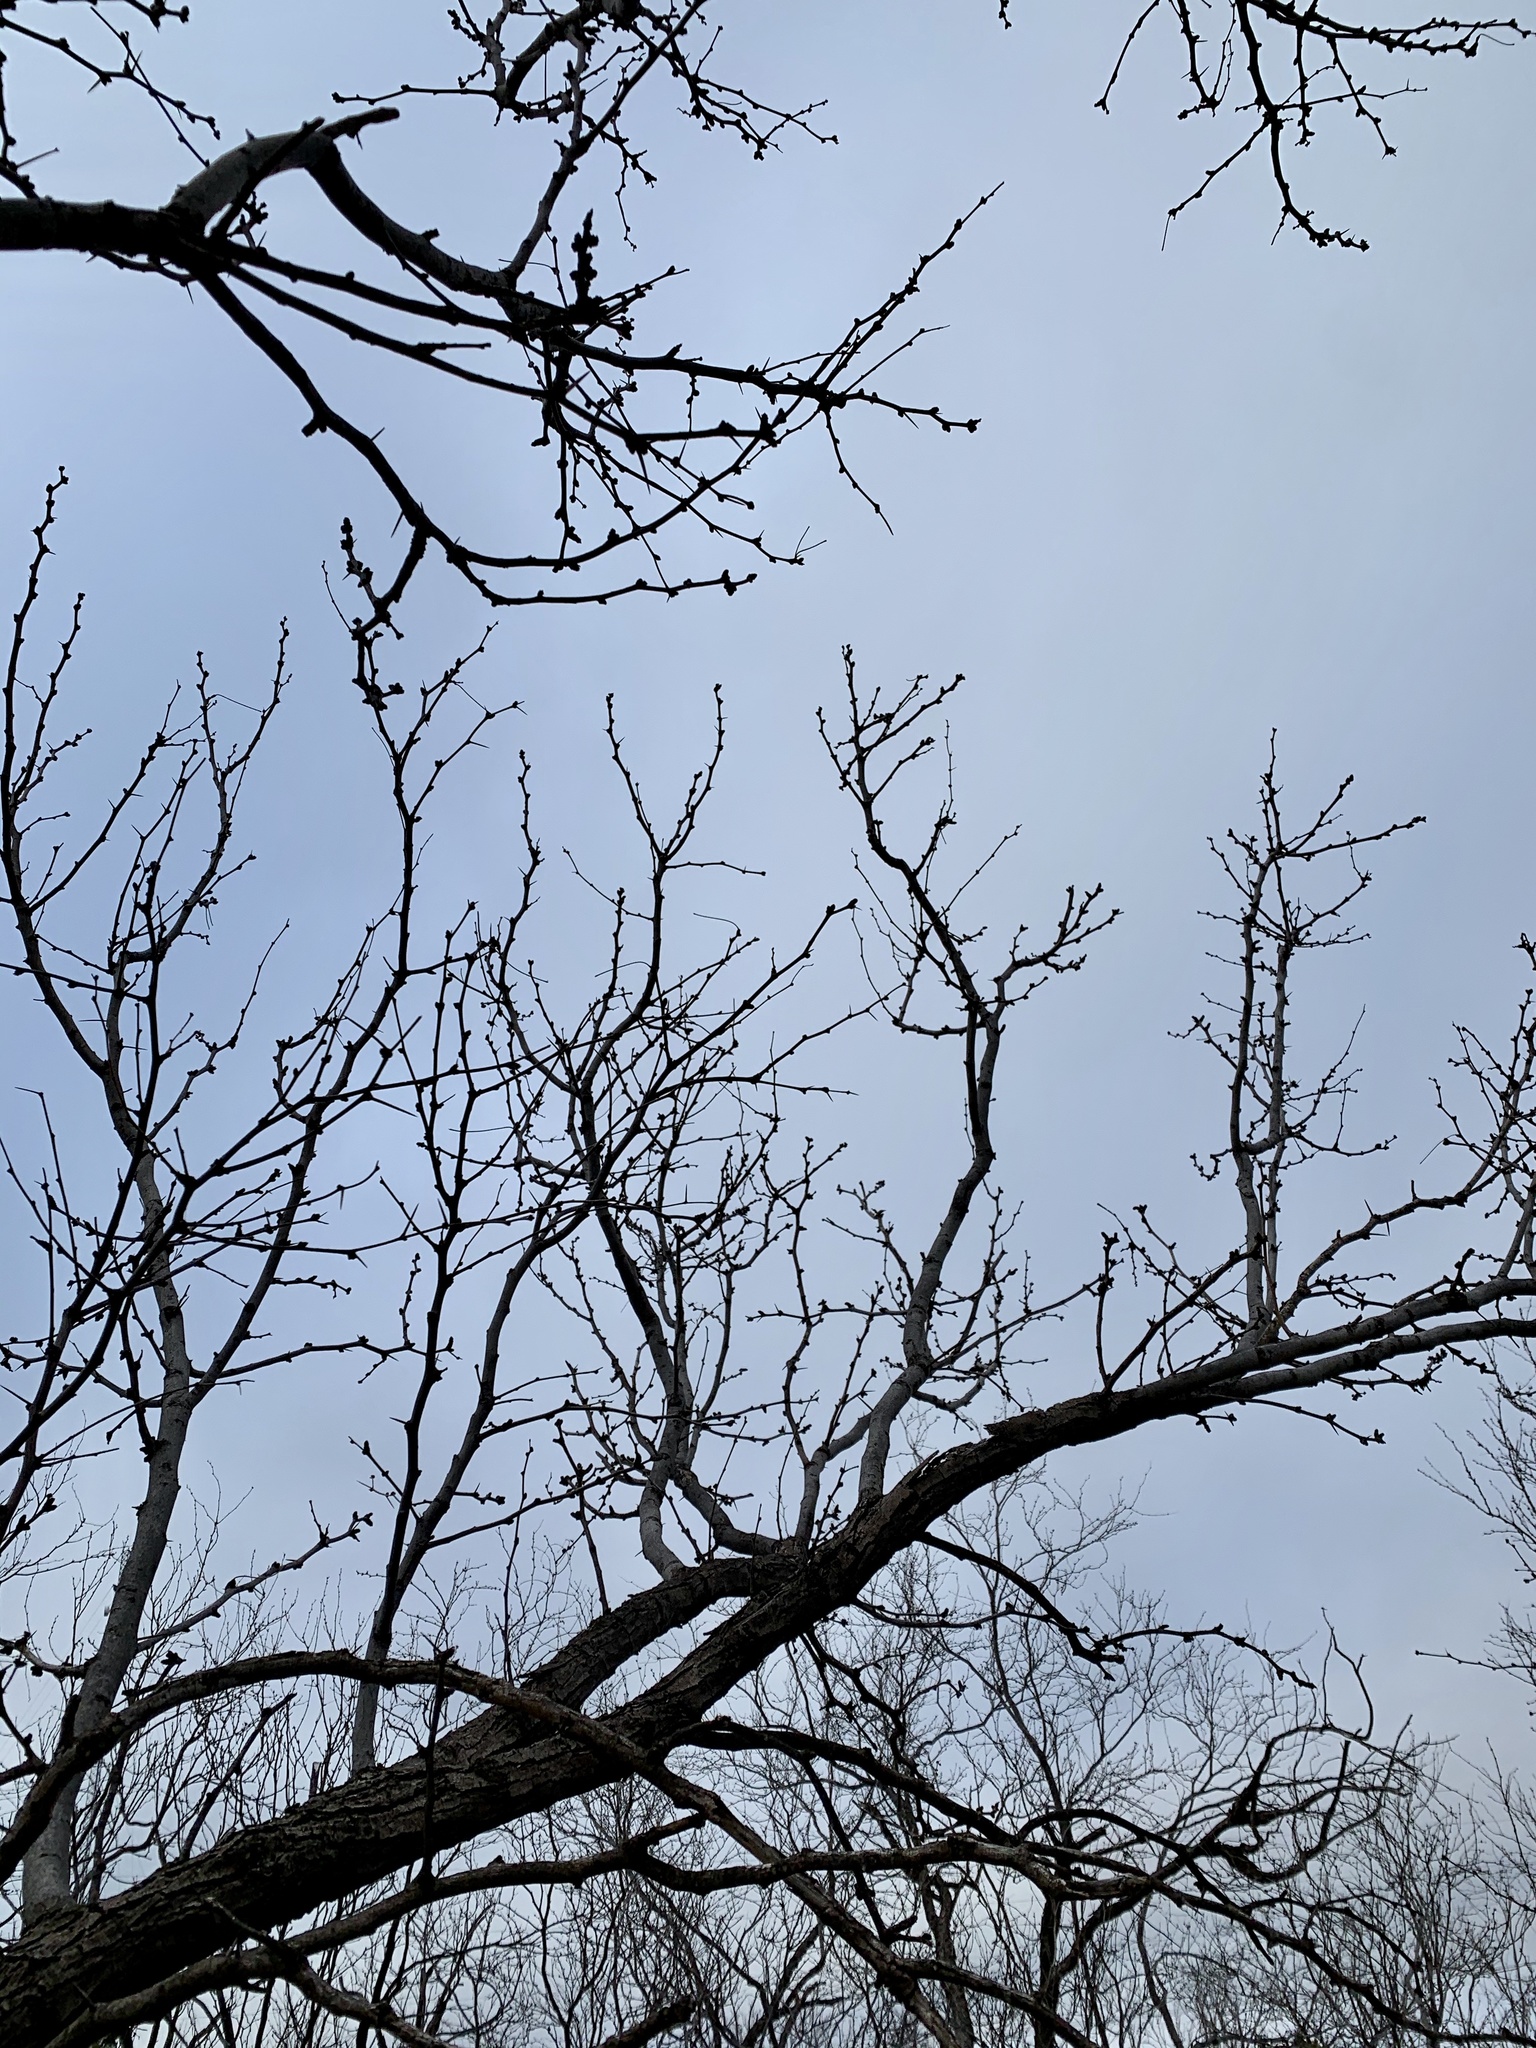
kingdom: Plantae
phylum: Tracheophyta
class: Magnoliopsida
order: Fabales
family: Fabaceae
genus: Prosopis
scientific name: Prosopis glandulosa
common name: Honey mesquite
